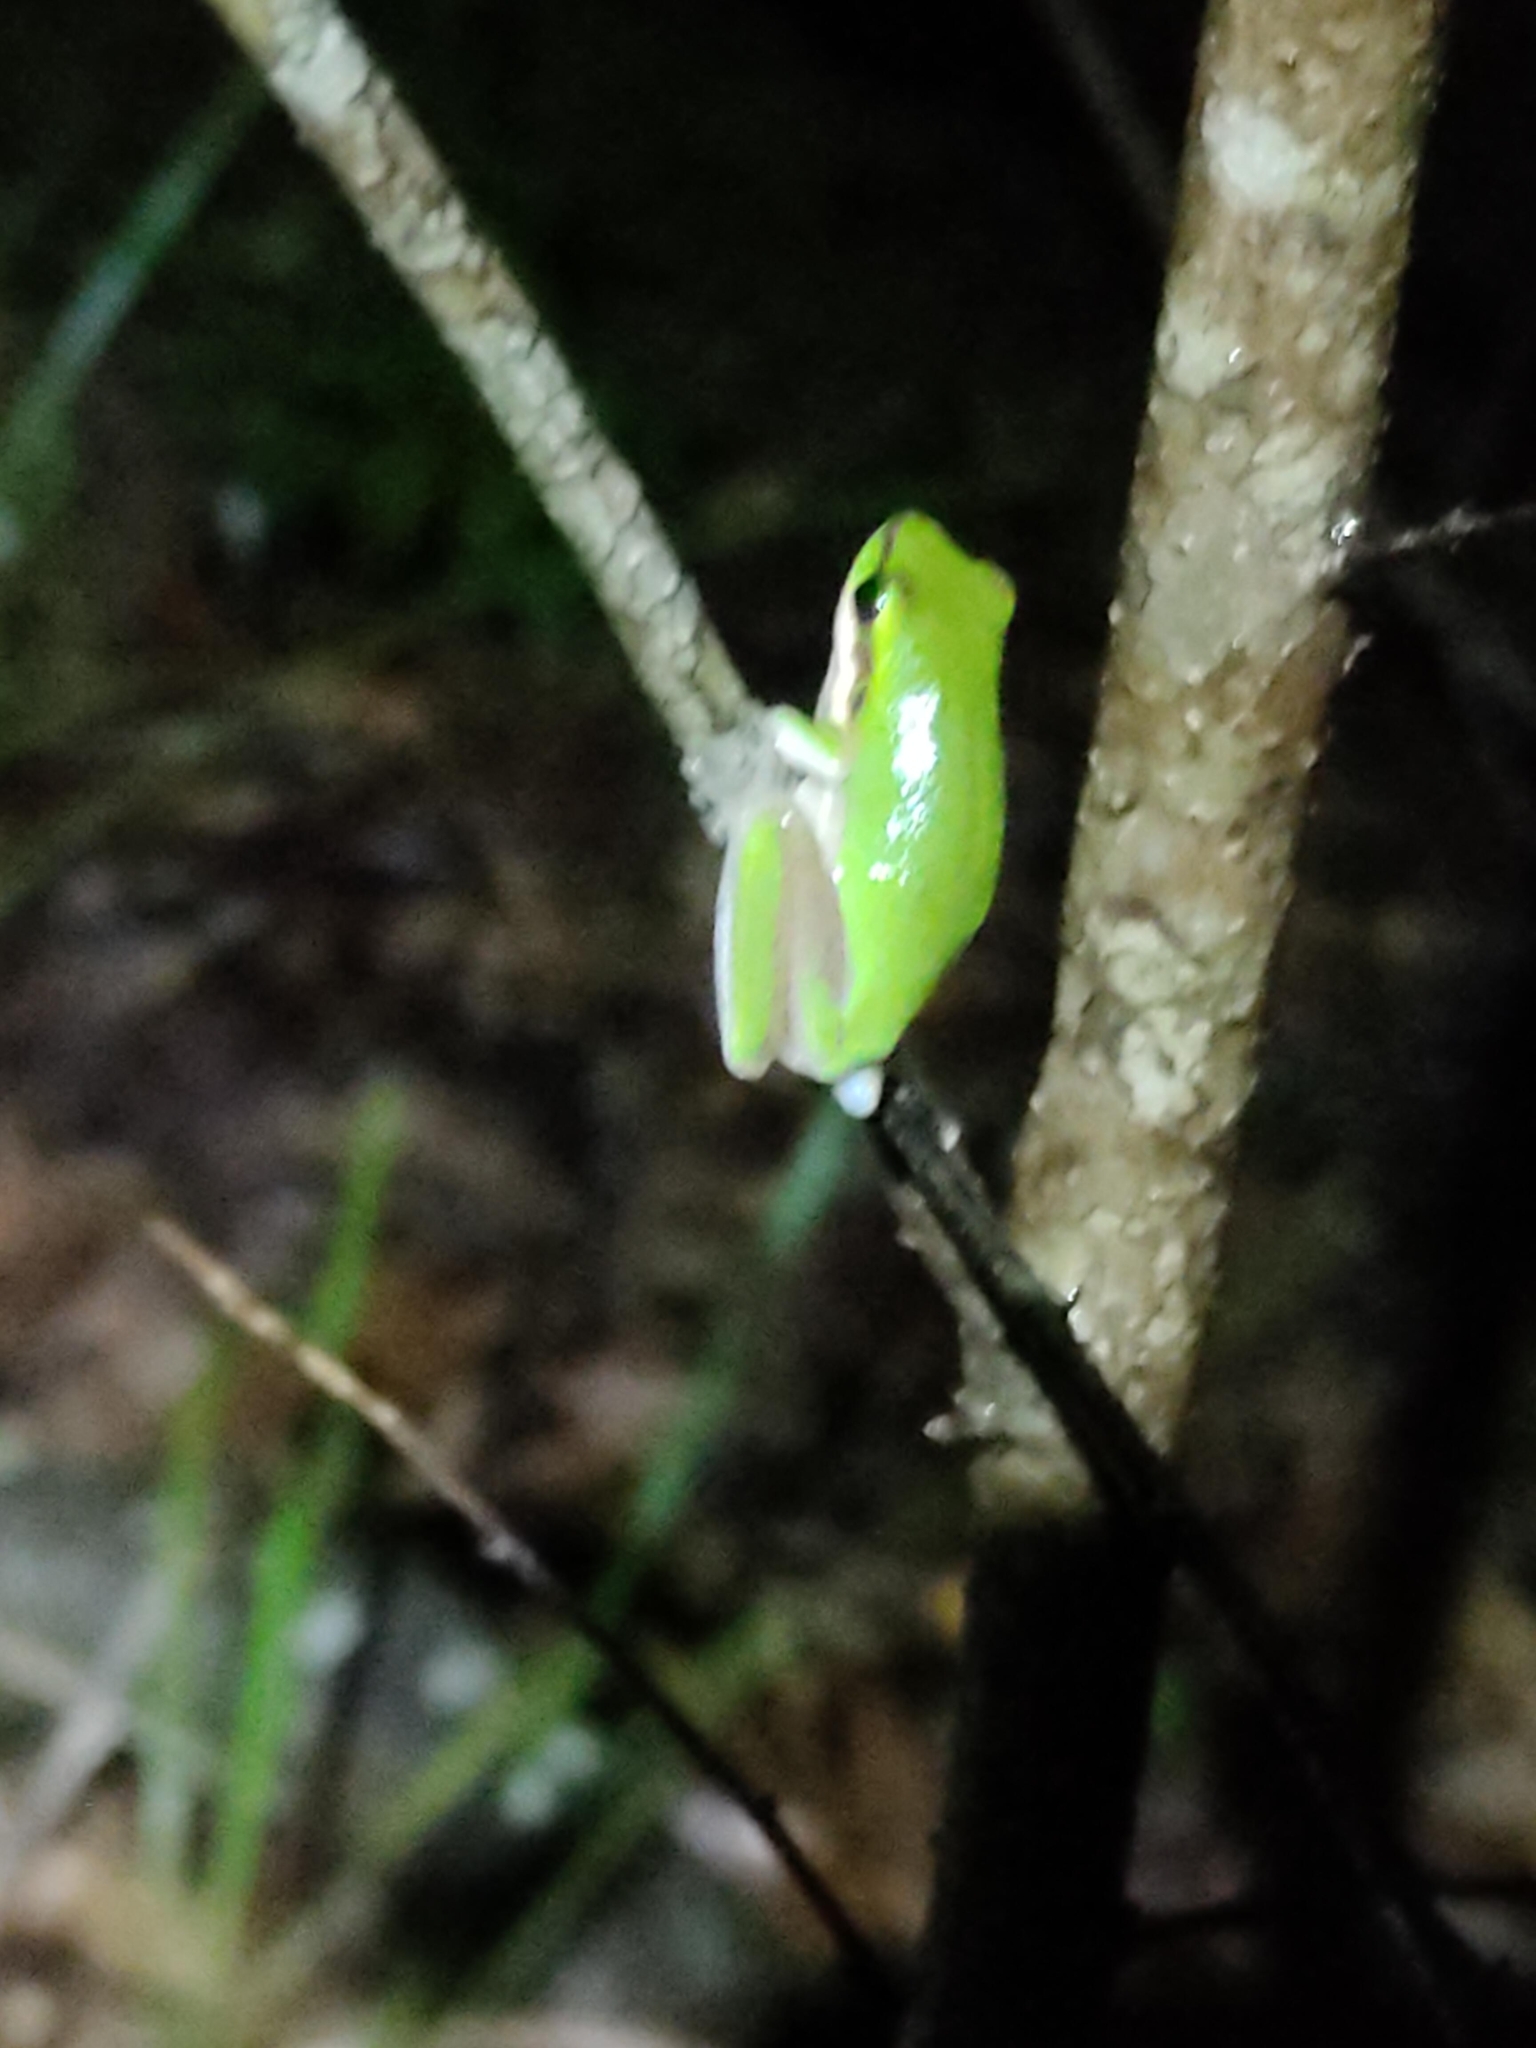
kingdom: Animalia
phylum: Chordata
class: Amphibia
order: Anura
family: Pelodryadidae
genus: Litoria
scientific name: Litoria fallax
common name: Eastern dwarf treefrog
